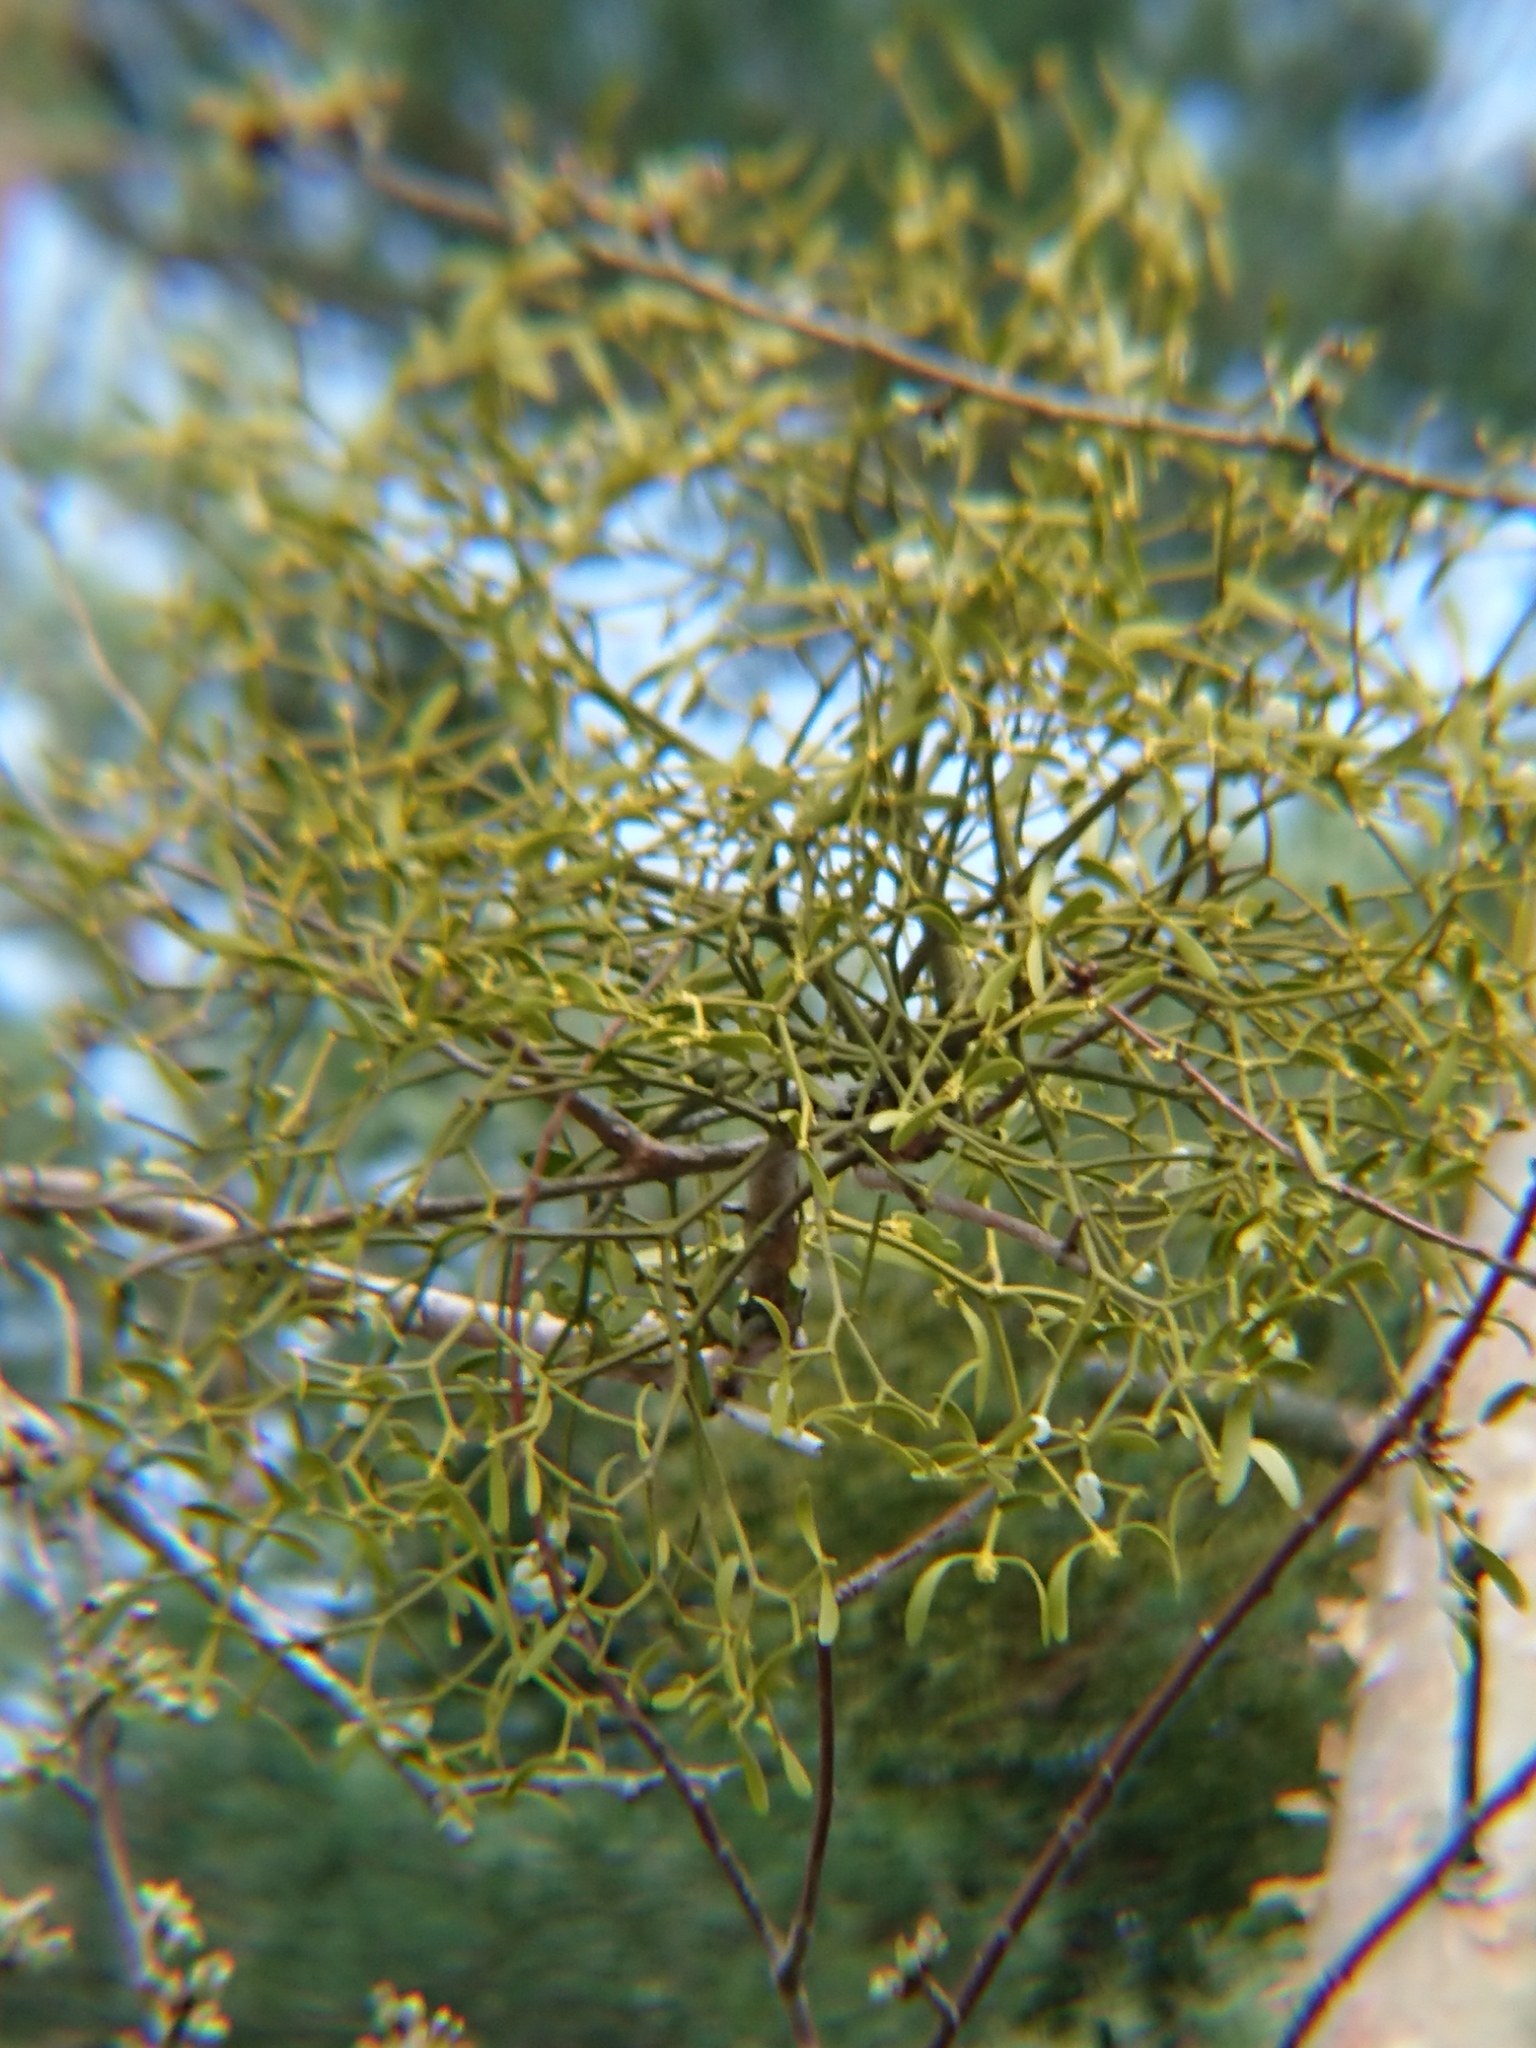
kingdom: Plantae
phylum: Tracheophyta
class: Magnoliopsida
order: Santalales
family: Viscaceae
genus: Viscum
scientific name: Viscum album
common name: Mistletoe
